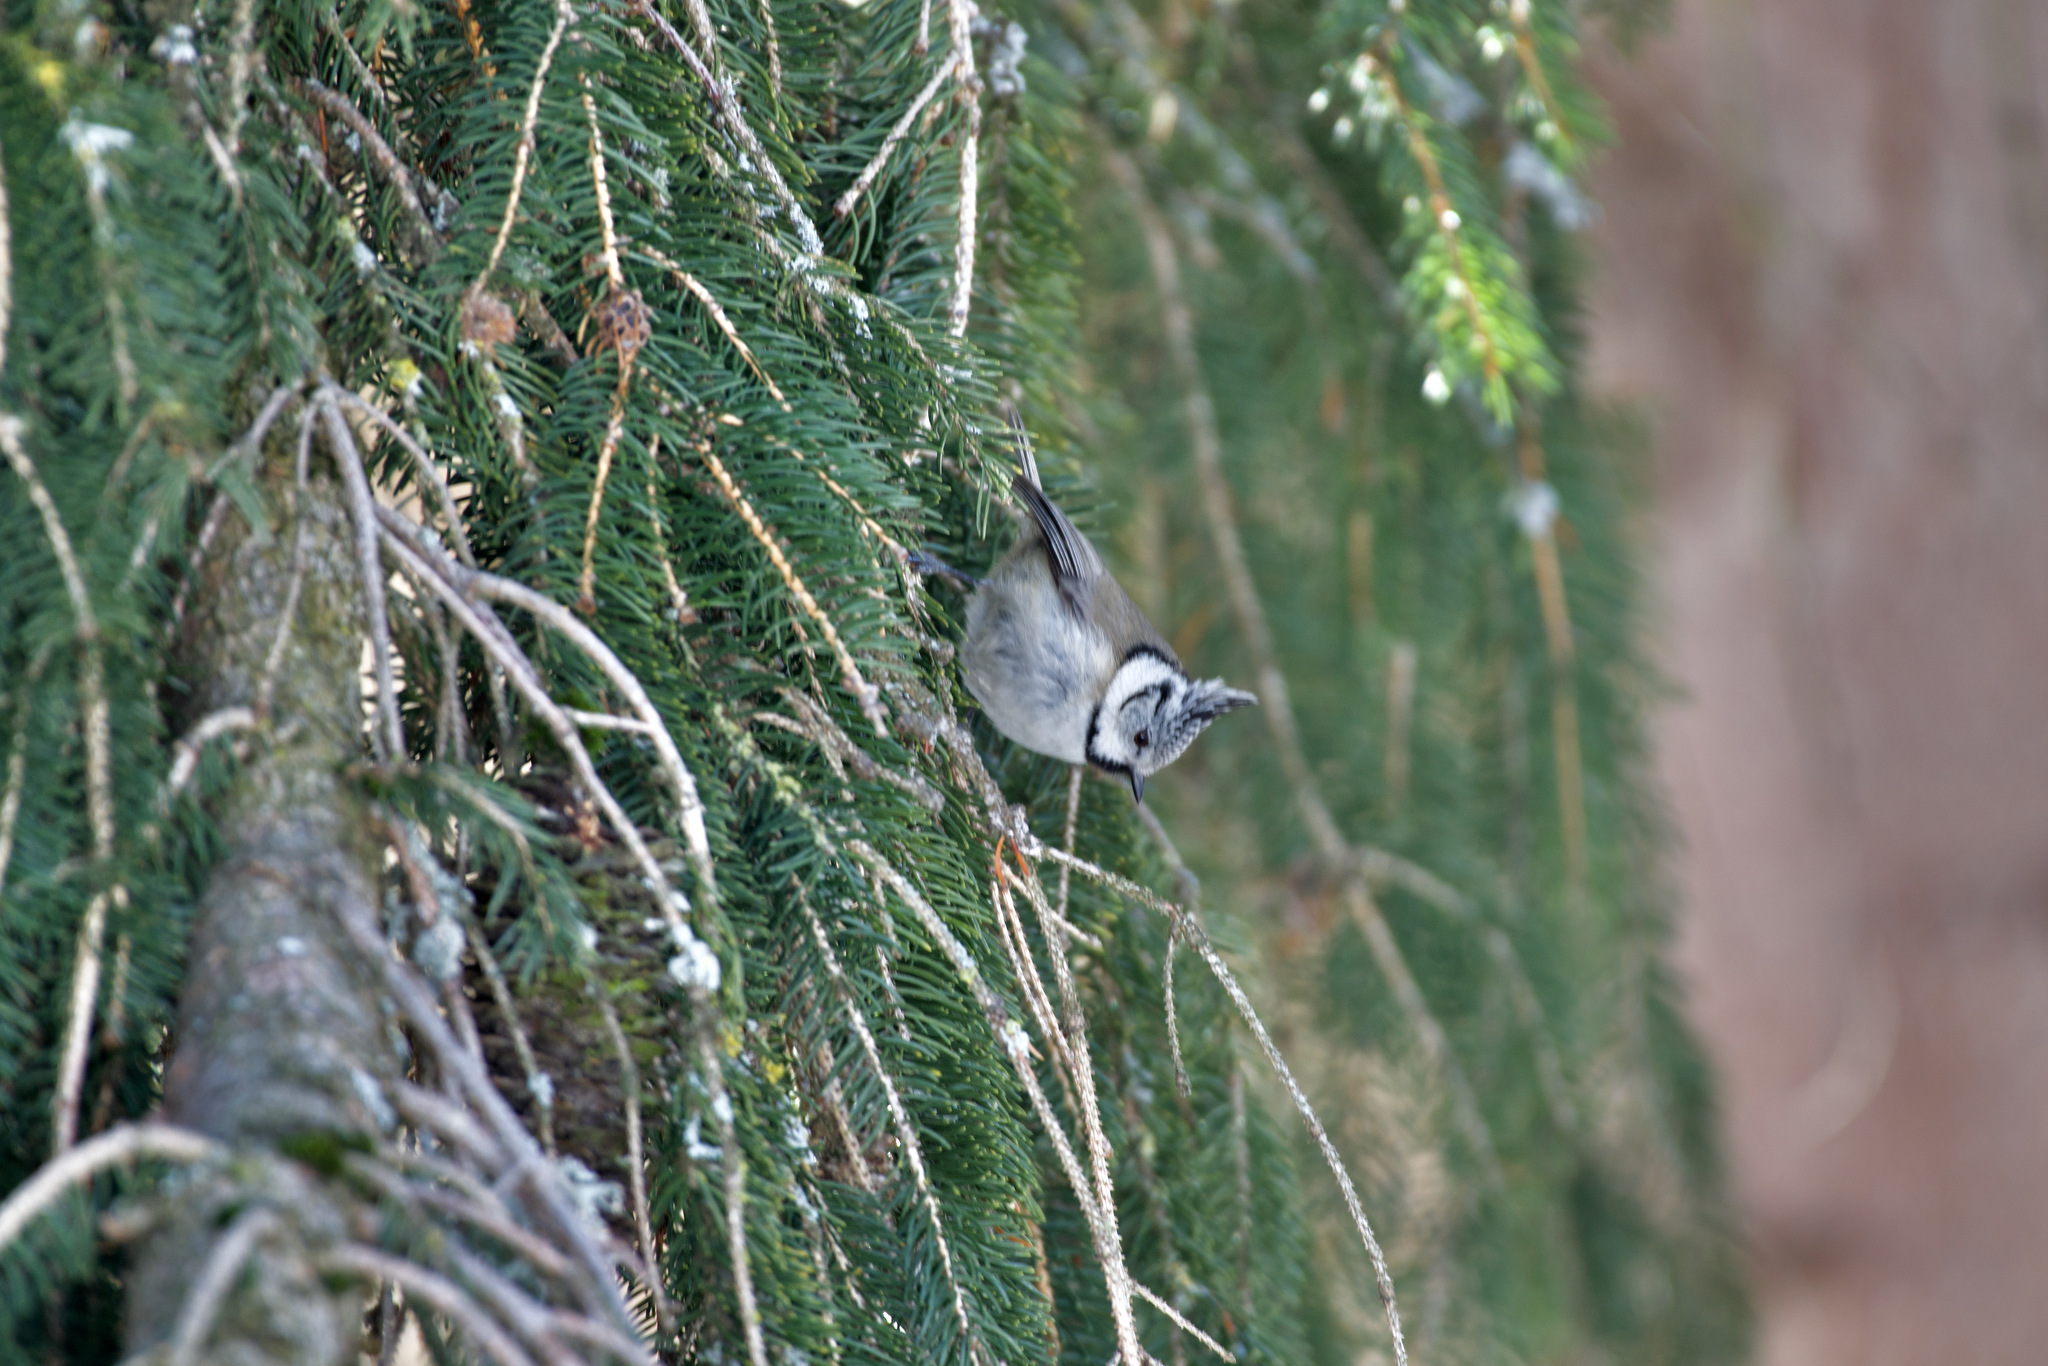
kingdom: Animalia
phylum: Chordata
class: Aves
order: Passeriformes
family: Paridae
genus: Lophophanes
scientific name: Lophophanes cristatus
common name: European crested tit
